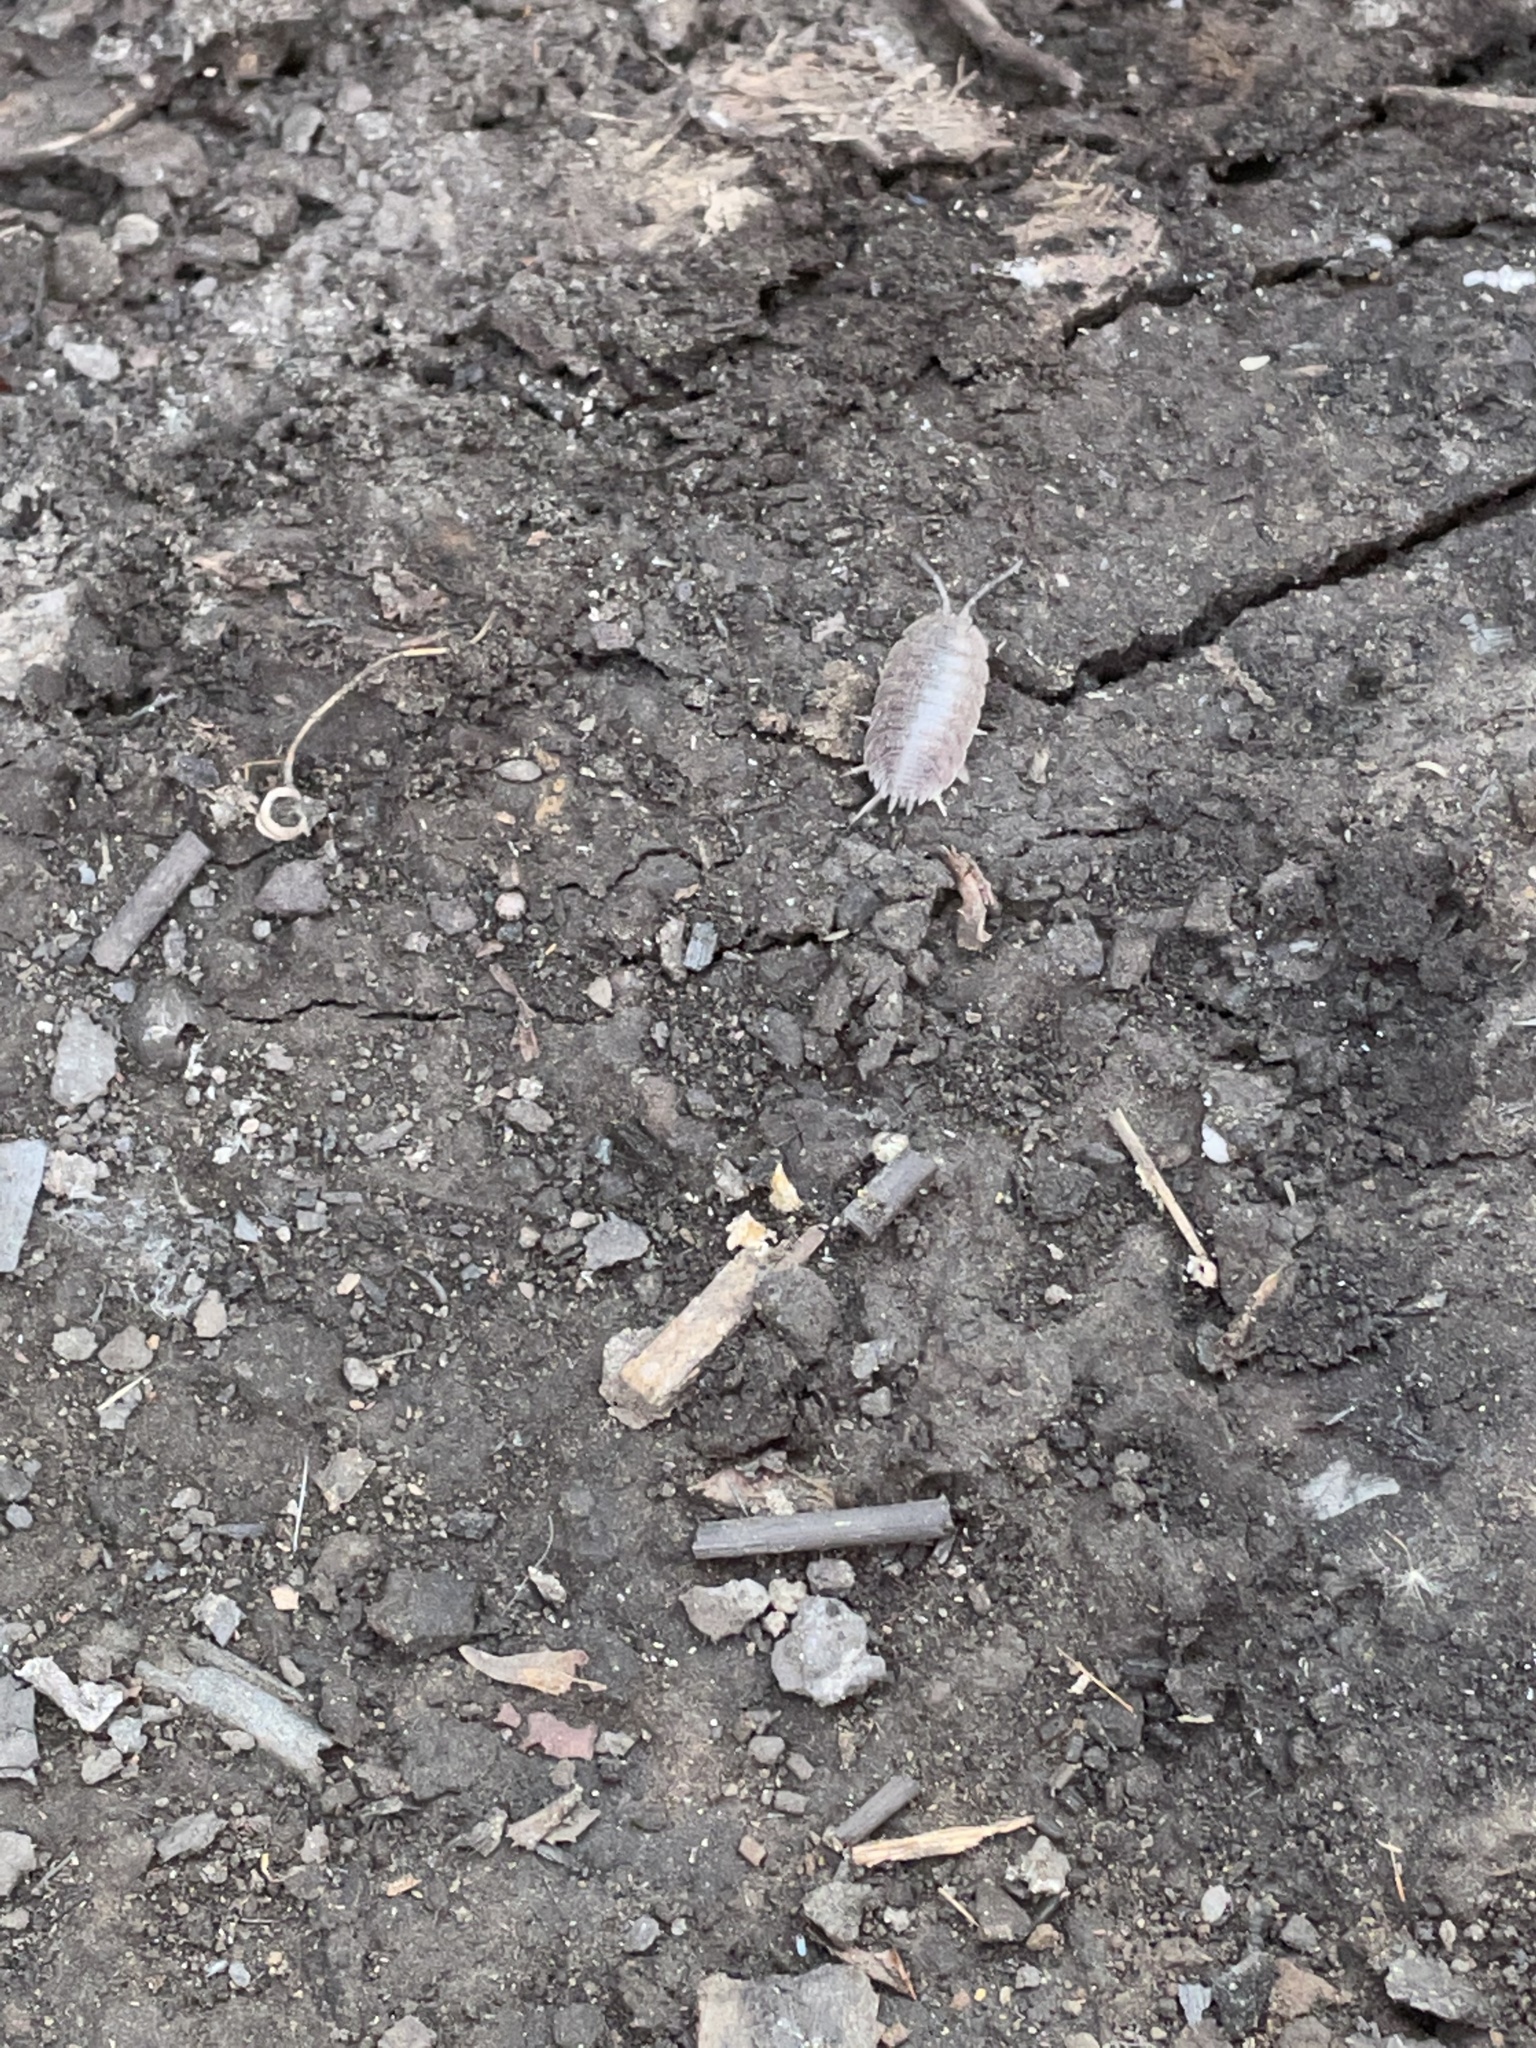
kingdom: Animalia
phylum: Arthropoda
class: Malacostraca
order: Isopoda
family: Porcellionidae
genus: Porcellio
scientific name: Porcellio laevis
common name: Swift woodlouse
